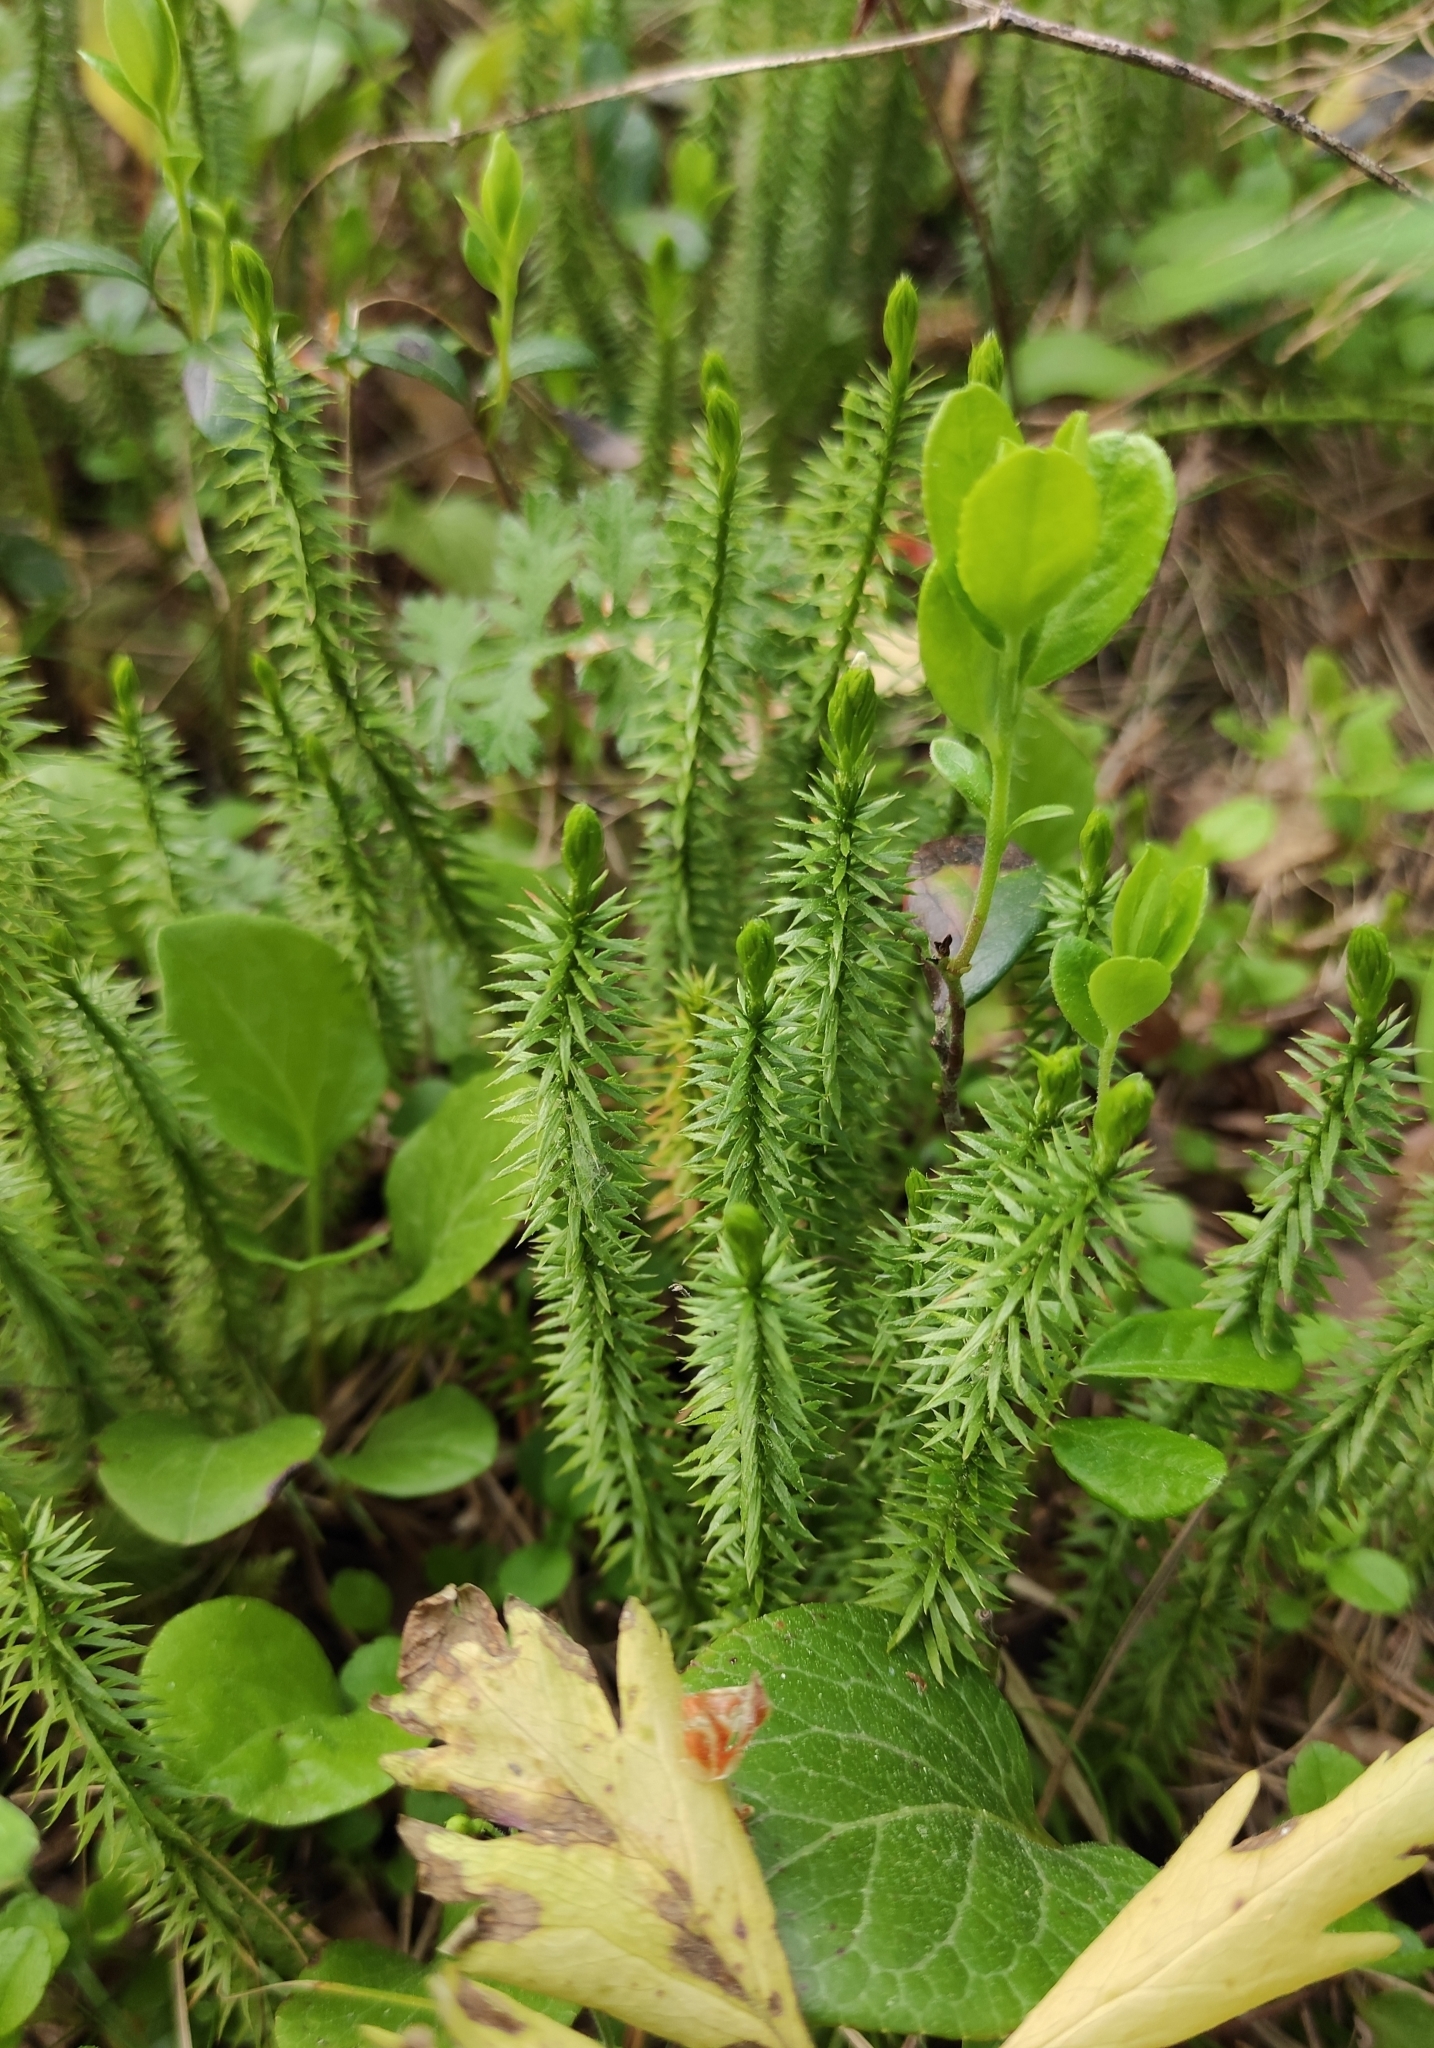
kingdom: Plantae
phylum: Tracheophyta
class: Lycopodiopsida
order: Lycopodiales
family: Lycopodiaceae
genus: Spinulum
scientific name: Spinulum annotinum
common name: Interrupted club-moss
